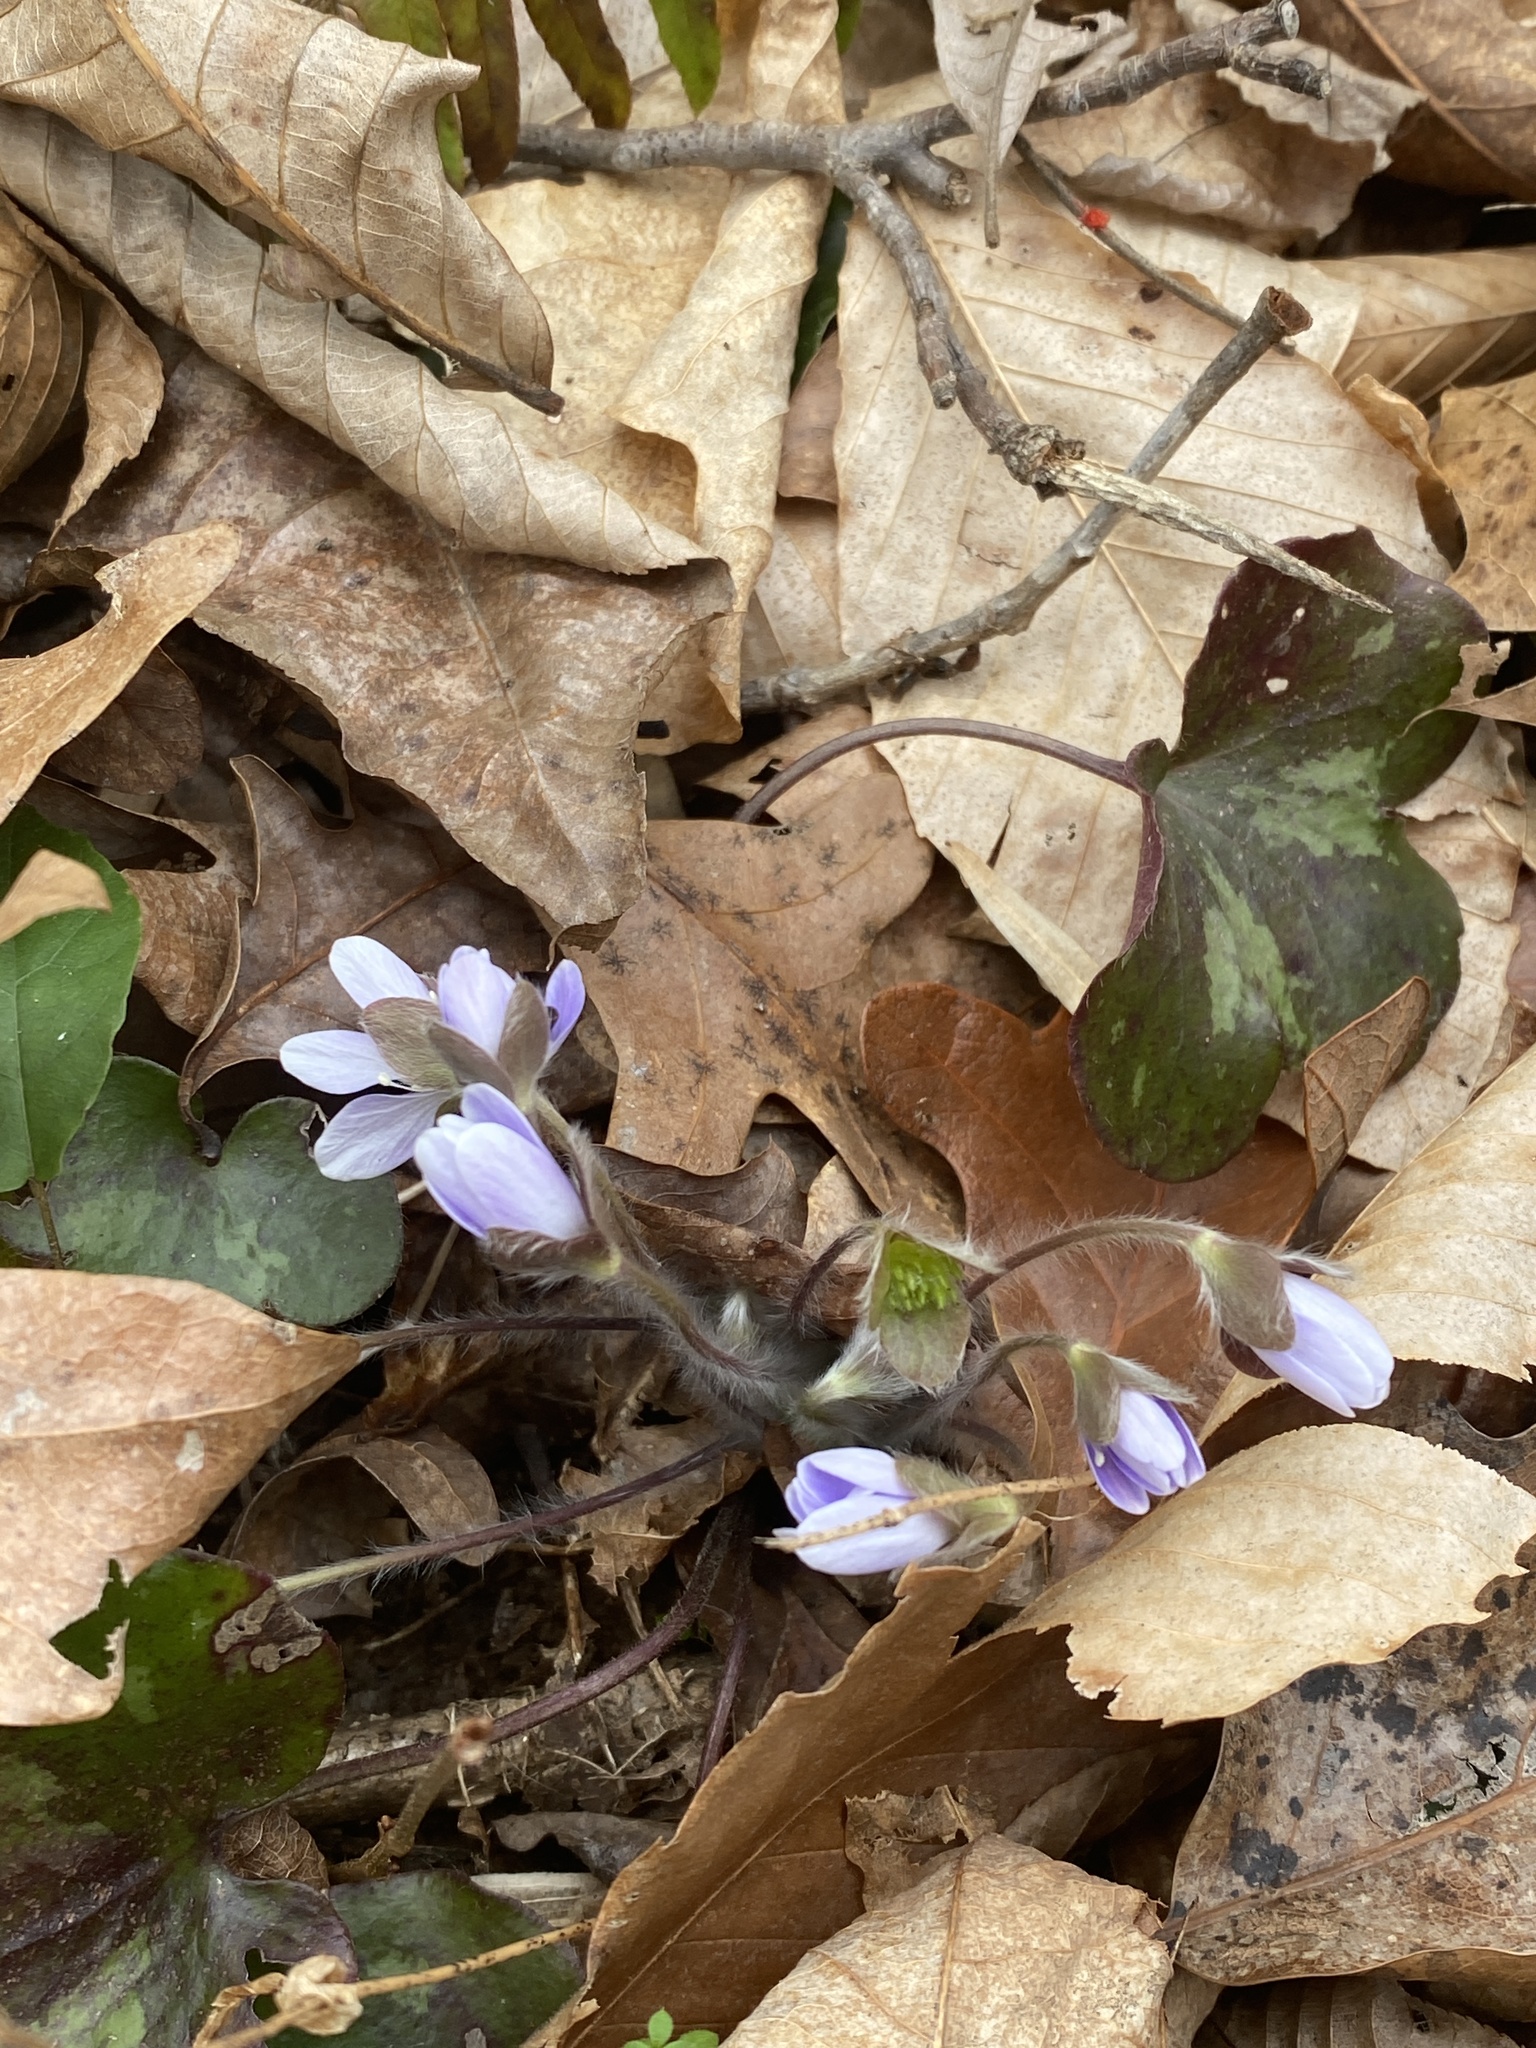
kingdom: Plantae
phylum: Tracheophyta
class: Magnoliopsida
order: Ranunculales
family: Ranunculaceae
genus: Hepatica
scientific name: Hepatica americana
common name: American hepatica
